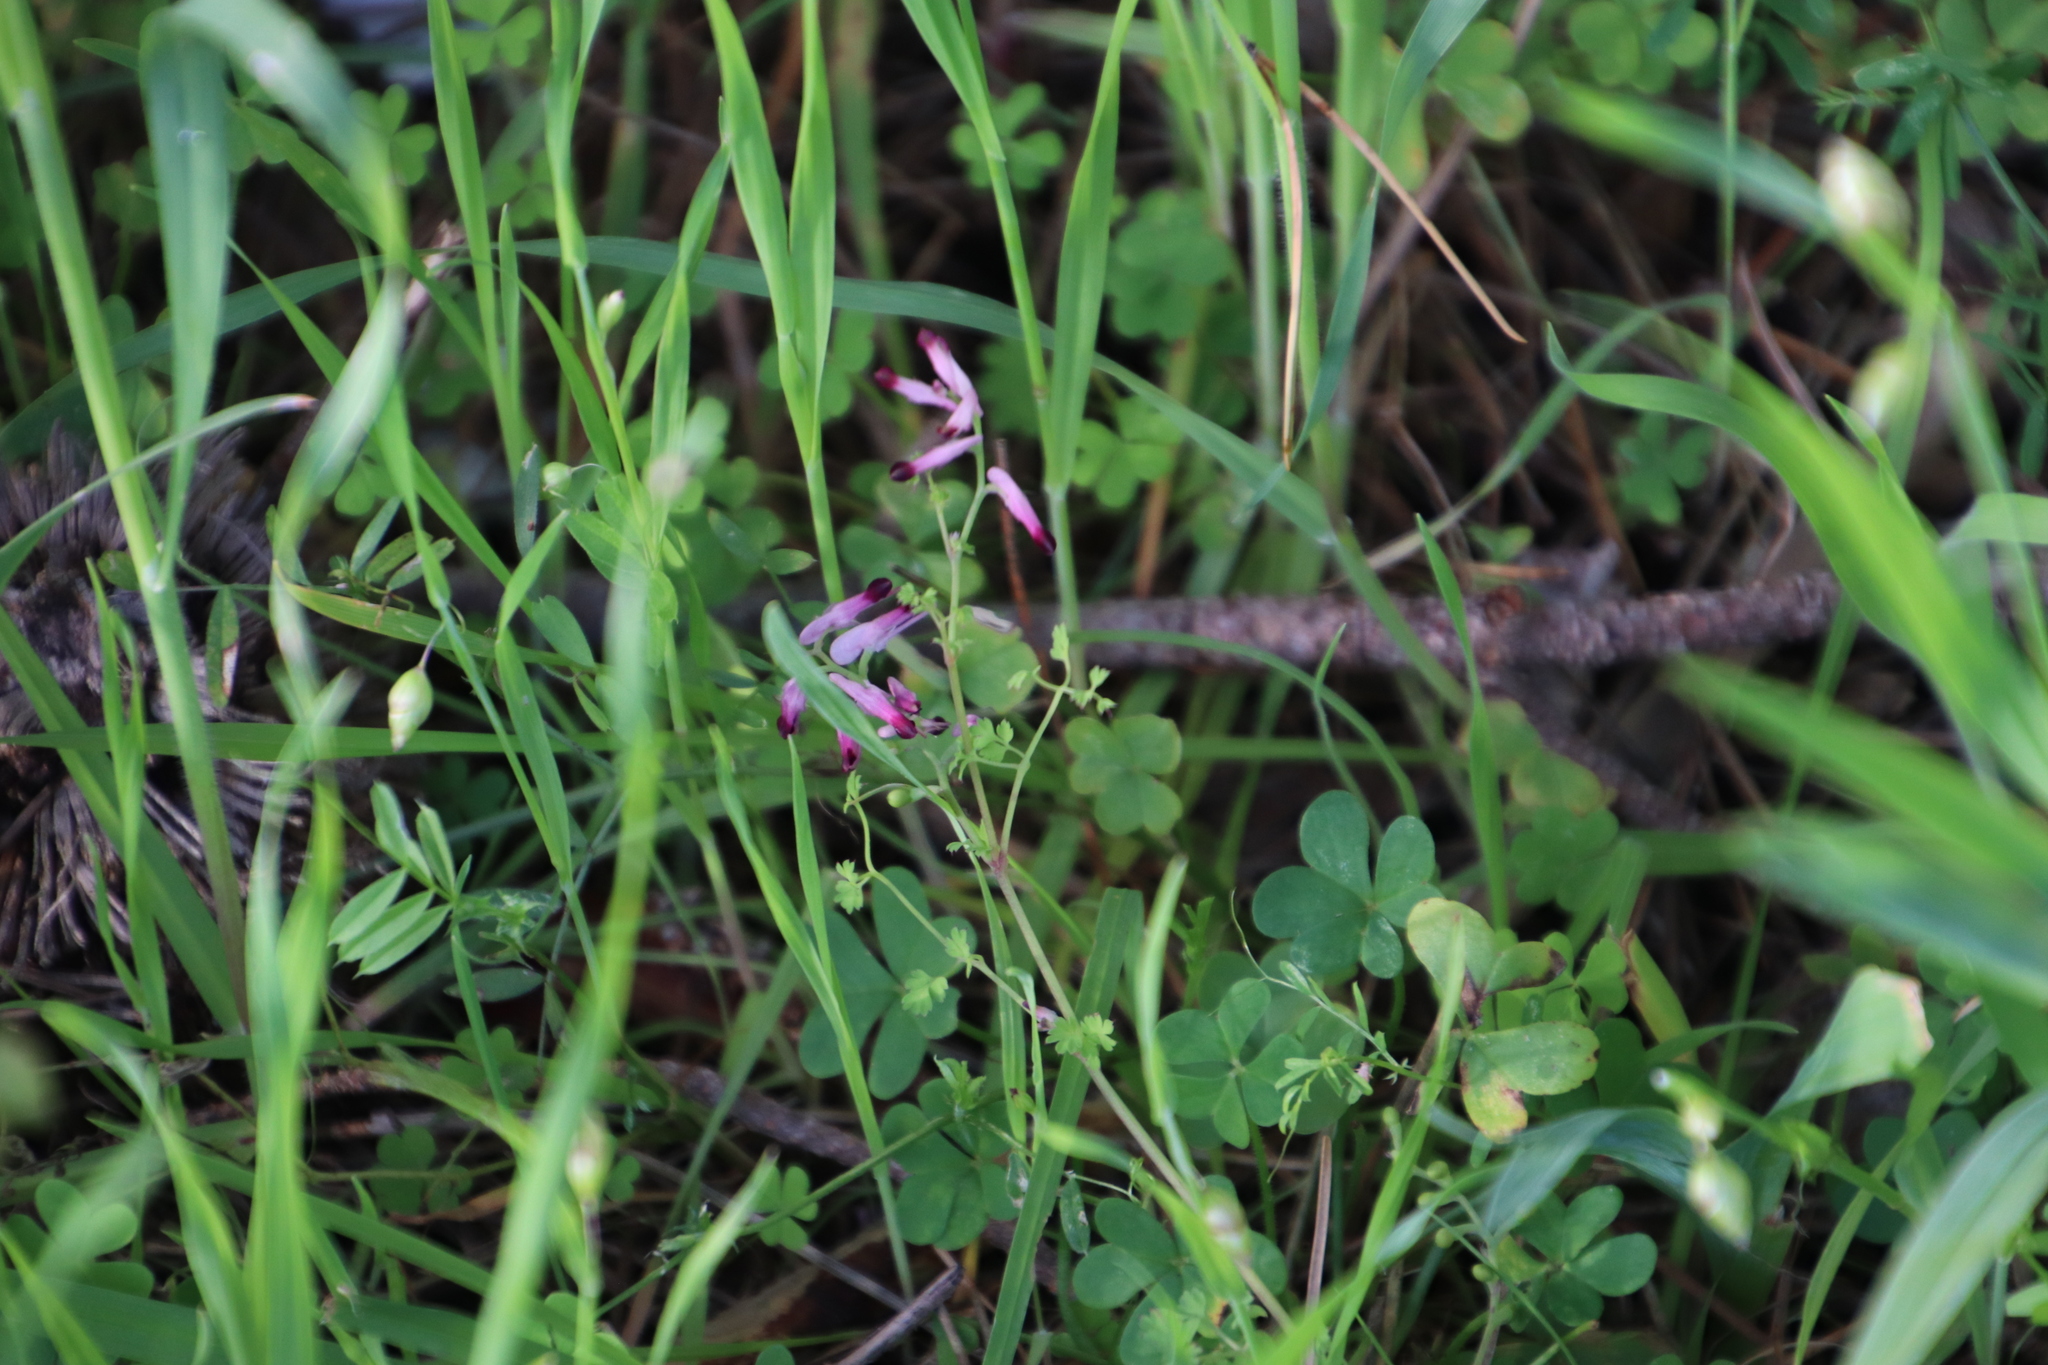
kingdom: Plantae
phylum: Tracheophyta
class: Magnoliopsida
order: Ranunculales
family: Papaveraceae
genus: Fumaria
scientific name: Fumaria muralis
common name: Common ramping-fumitory
